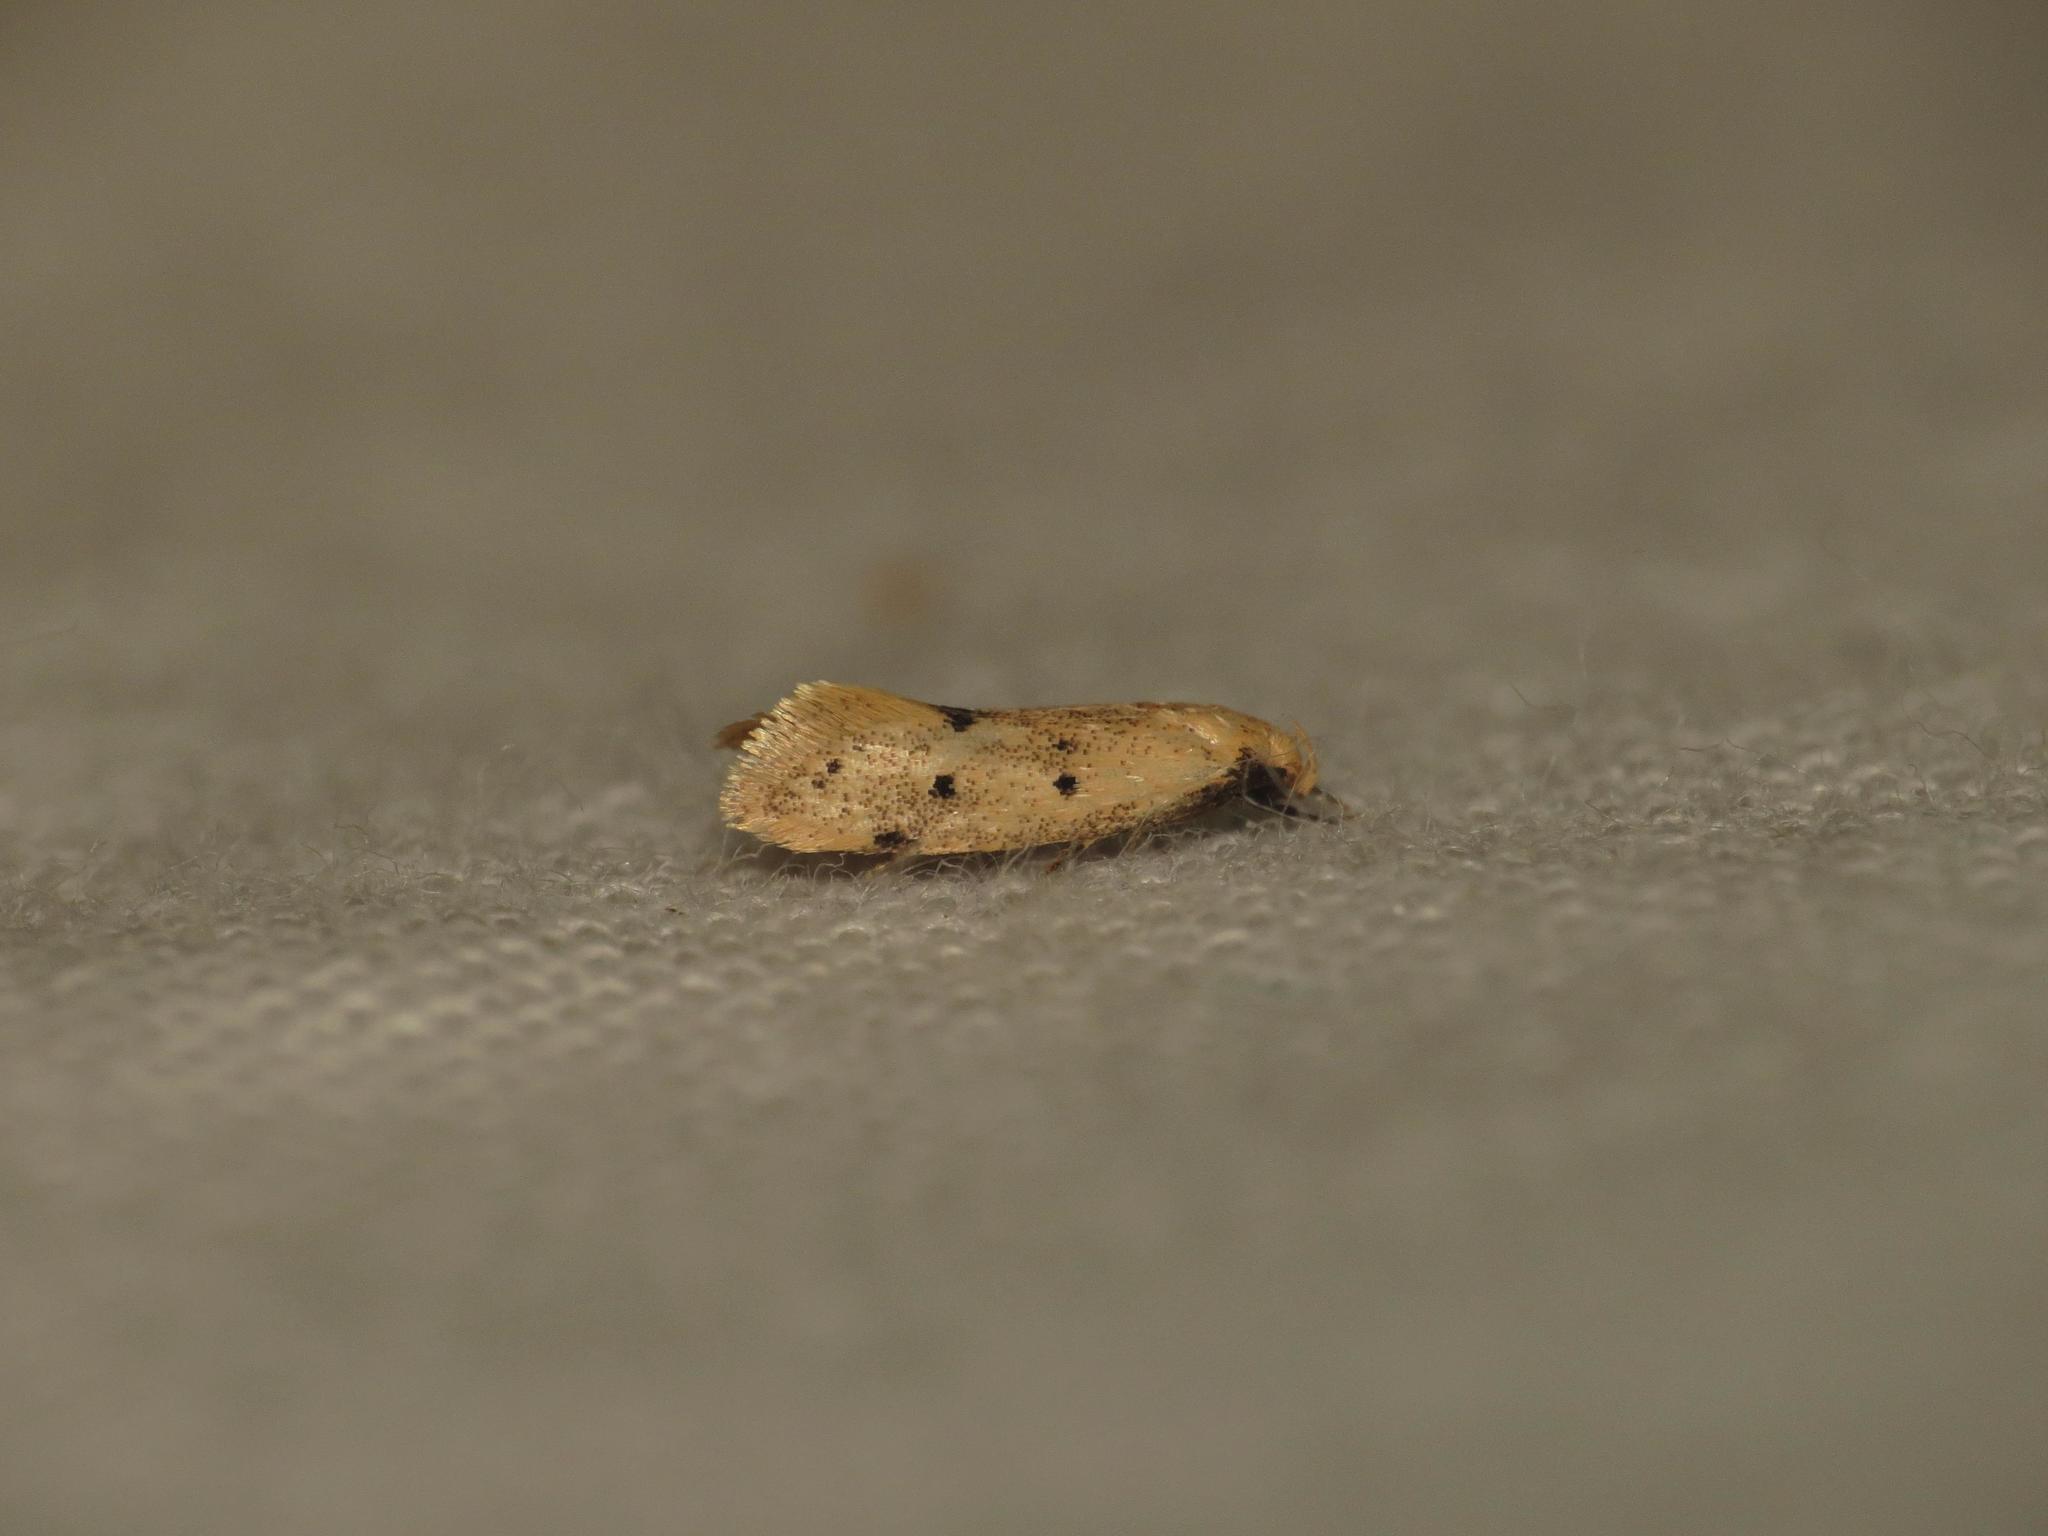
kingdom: Animalia
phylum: Arthropoda
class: Insecta
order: Lepidoptera
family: Oecophoridae
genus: Mimobrachyoma
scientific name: Mimobrachyoma meselectra
